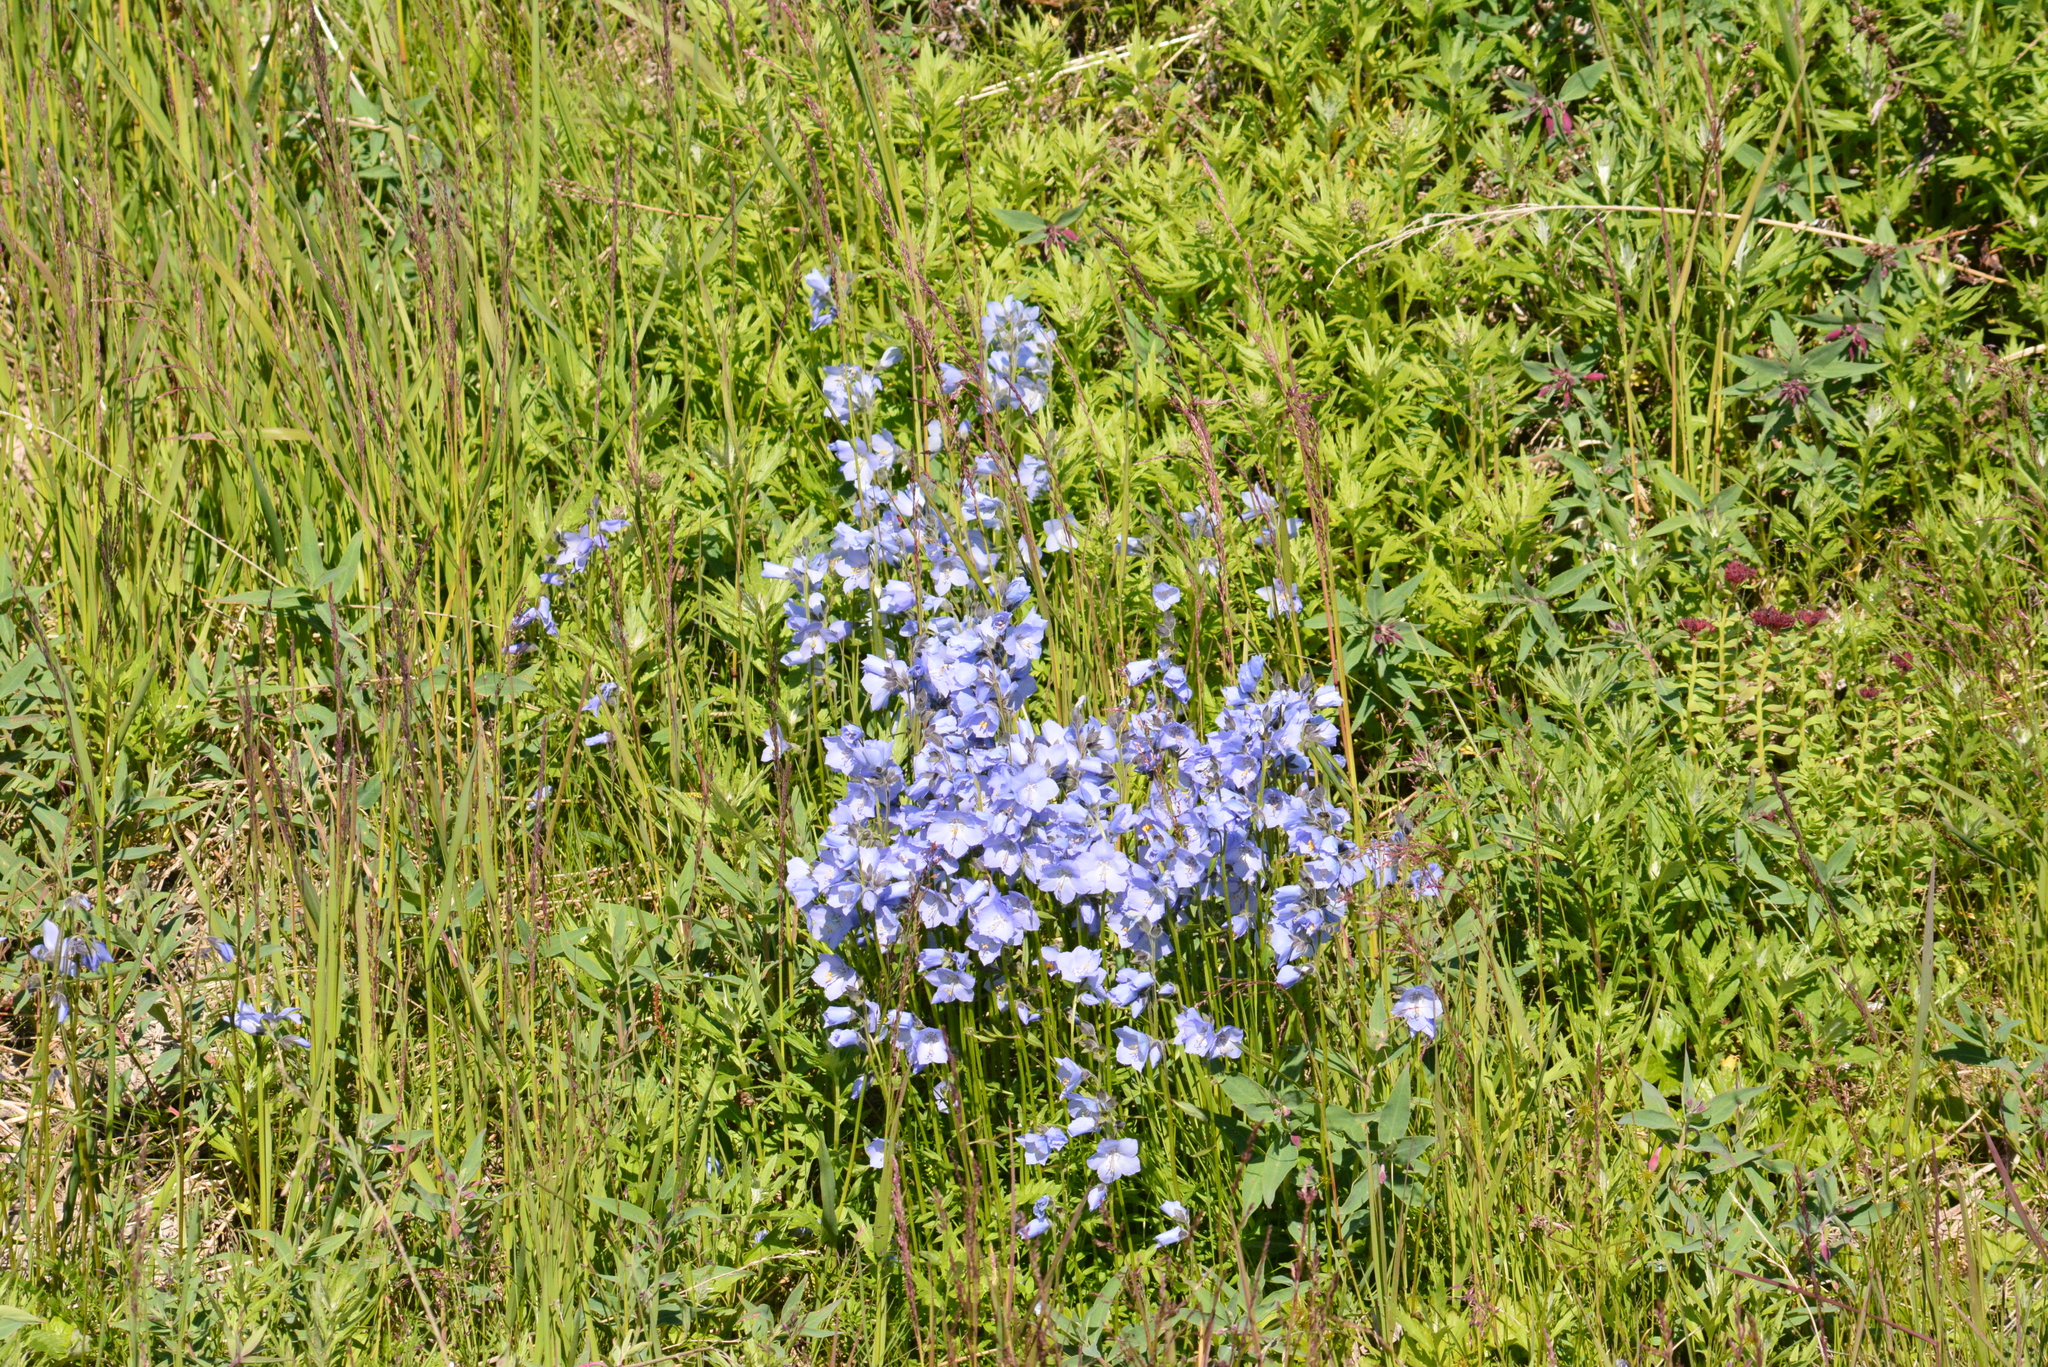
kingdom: Plantae
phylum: Tracheophyta
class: Magnoliopsida
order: Ericales
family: Polemoniaceae
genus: Polemonium
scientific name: Polemonium acutiflorum
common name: Tall jacob's-ladder
